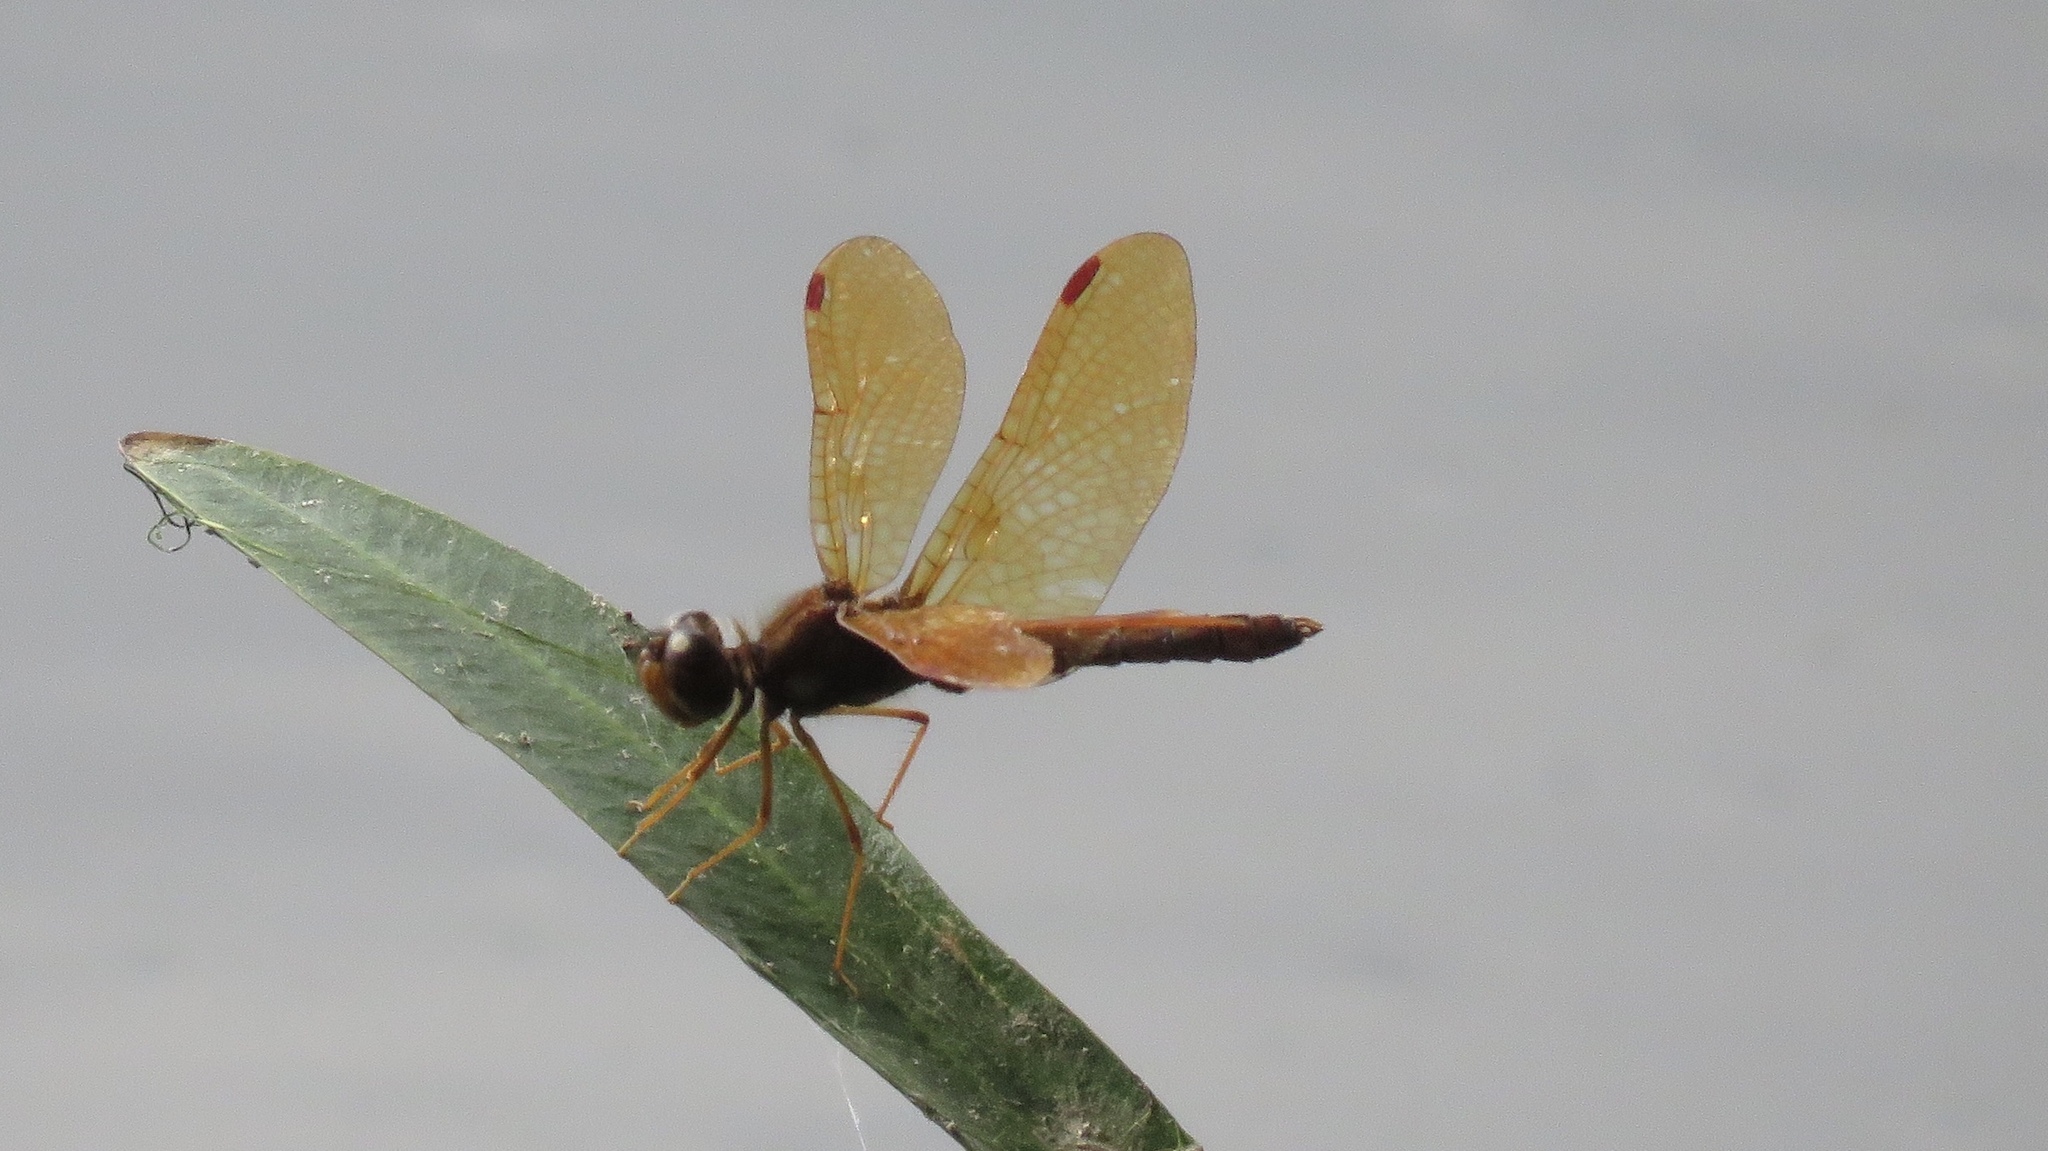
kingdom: Animalia
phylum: Arthropoda
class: Insecta
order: Odonata
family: Libellulidae
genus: Perithemis
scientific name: Perithemis tenera
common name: Eastern amberwing
